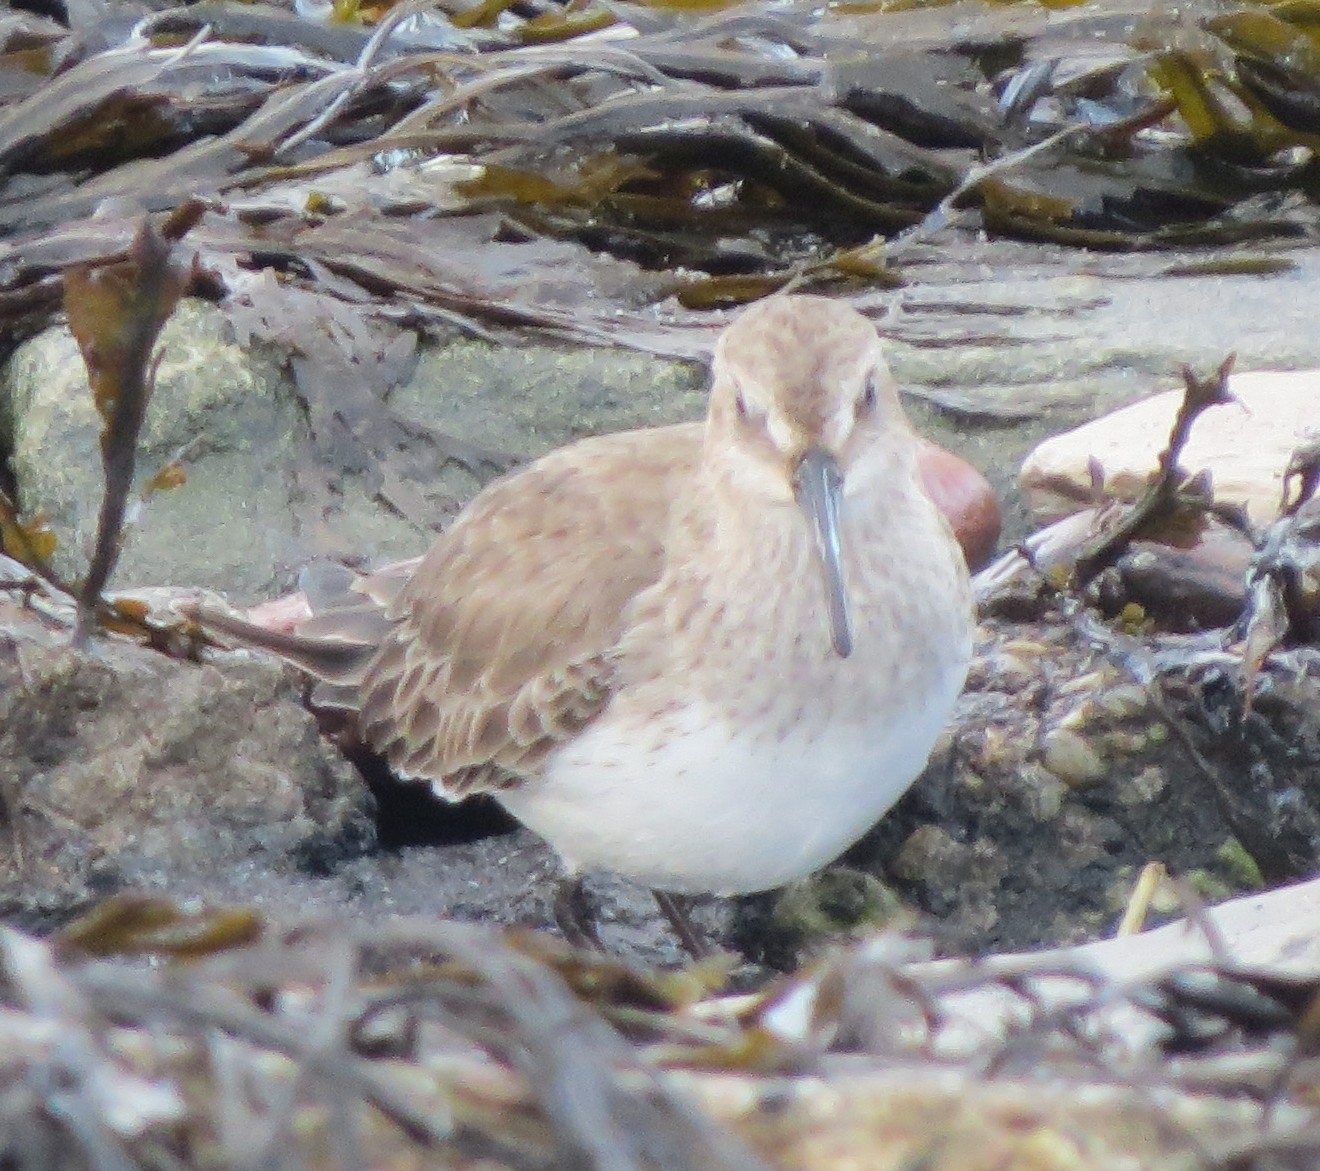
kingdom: Animalia
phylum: Chordata
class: Aves
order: Charadriiformes
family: Scolopacidae
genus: Calidris
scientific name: Calidris alpina
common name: Dunlin
